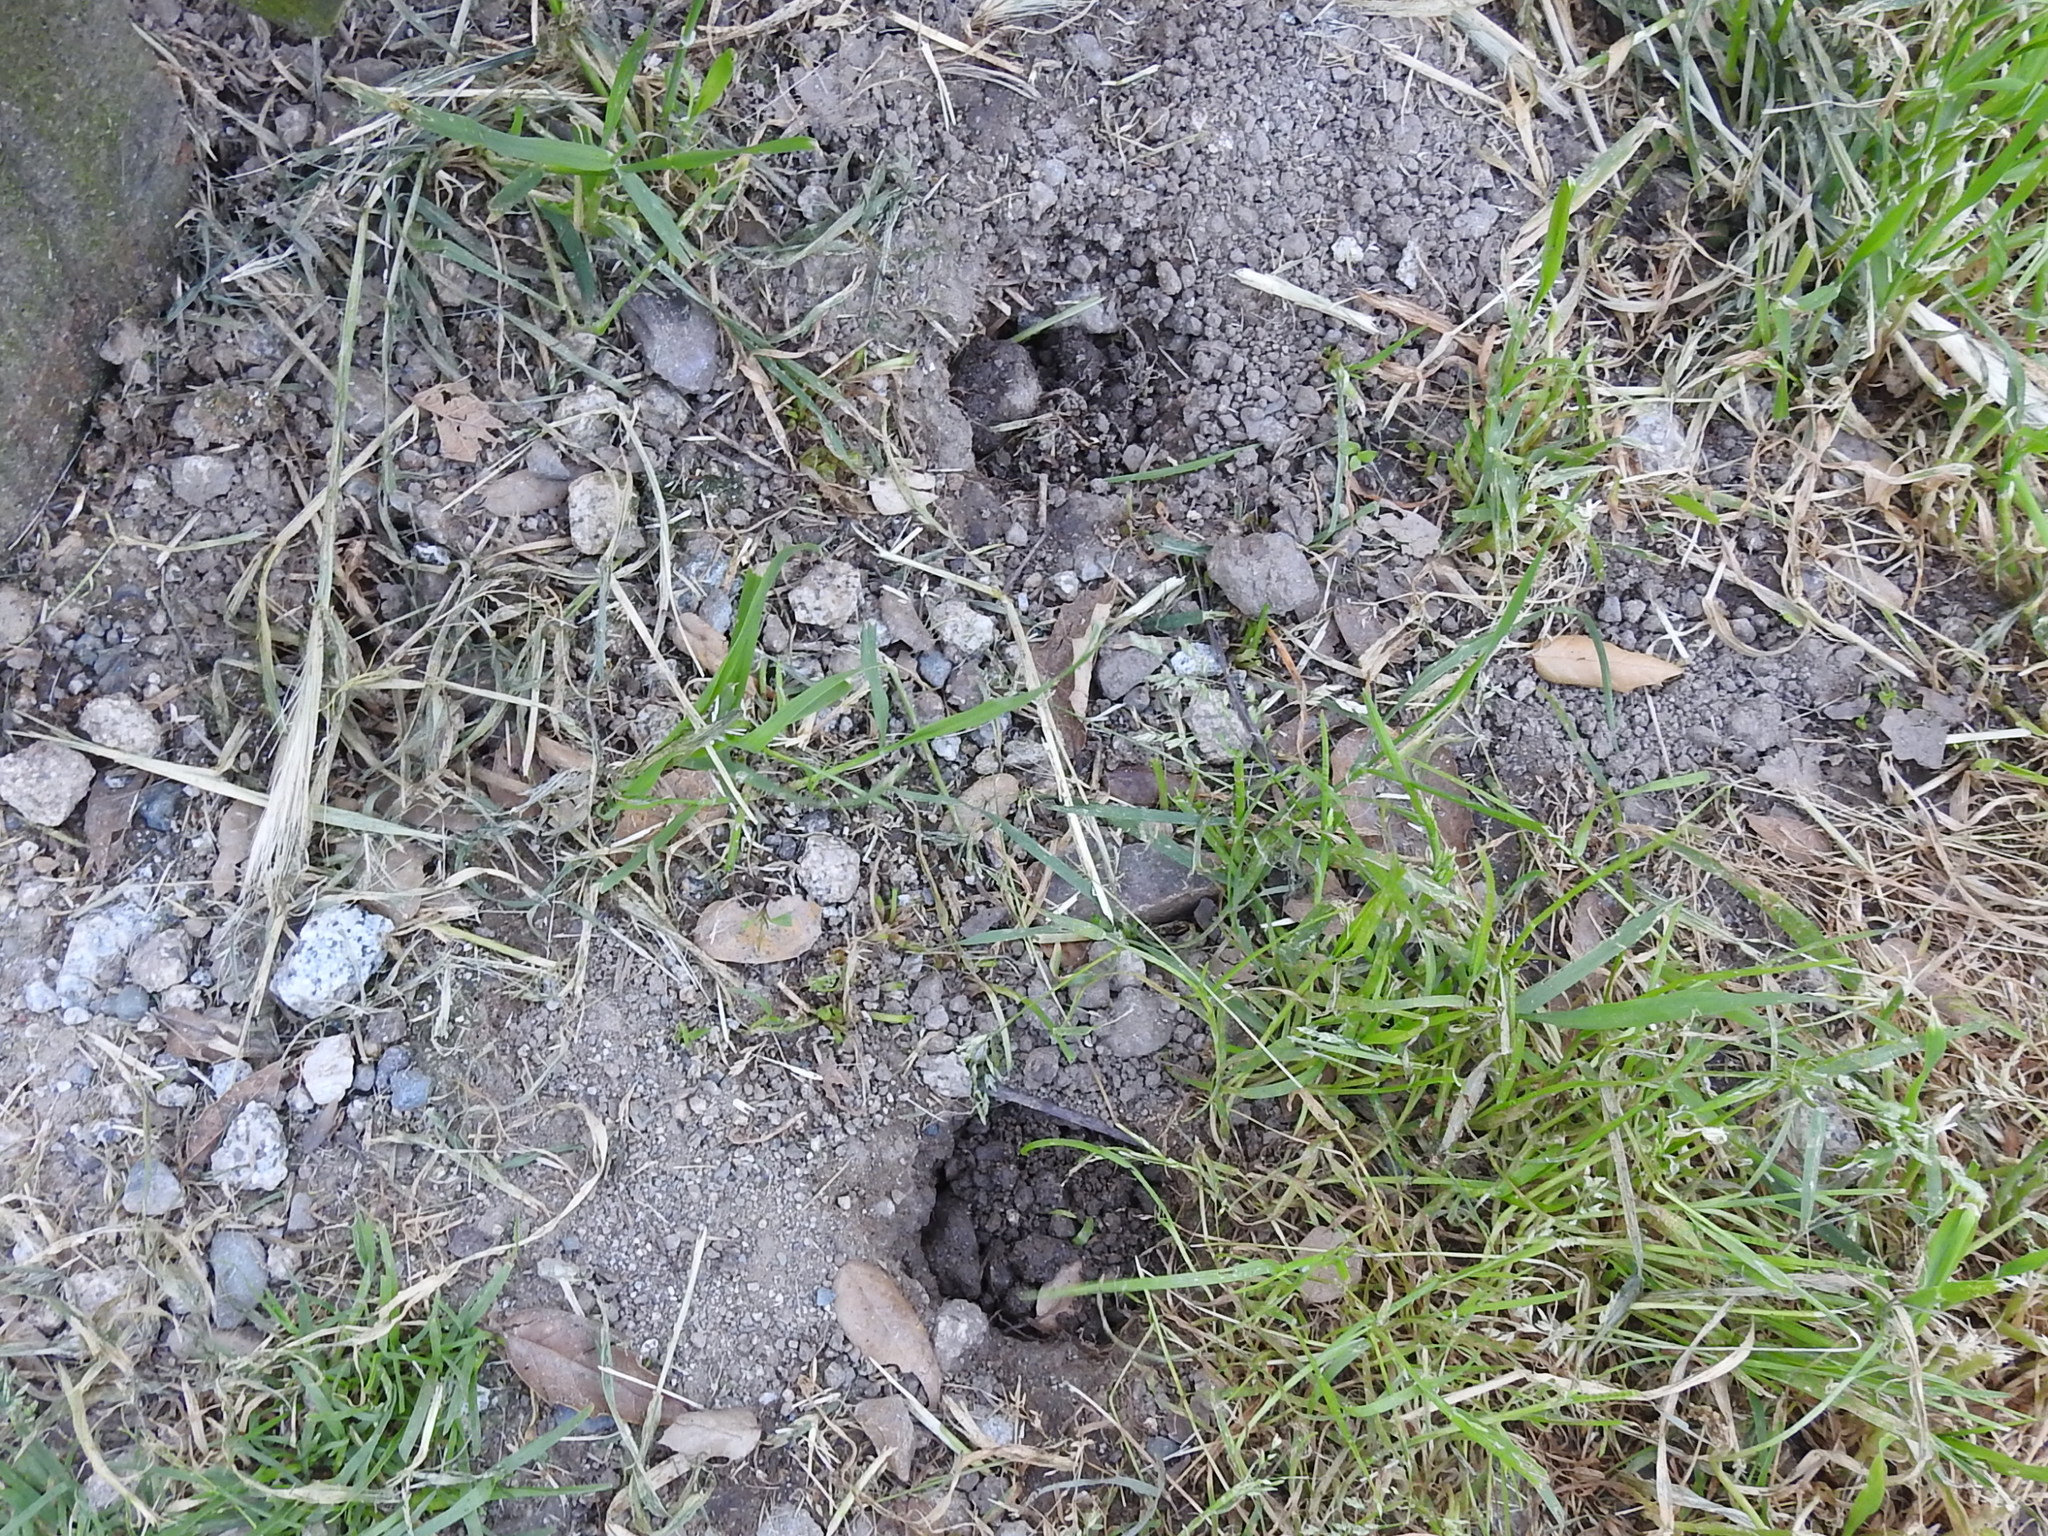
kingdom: Animalia
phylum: Chordata
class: Mammalia
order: Rodentia
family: Geomyidae
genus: Thomomys
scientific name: Thomomys bottae
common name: Botta's pocket gopher
